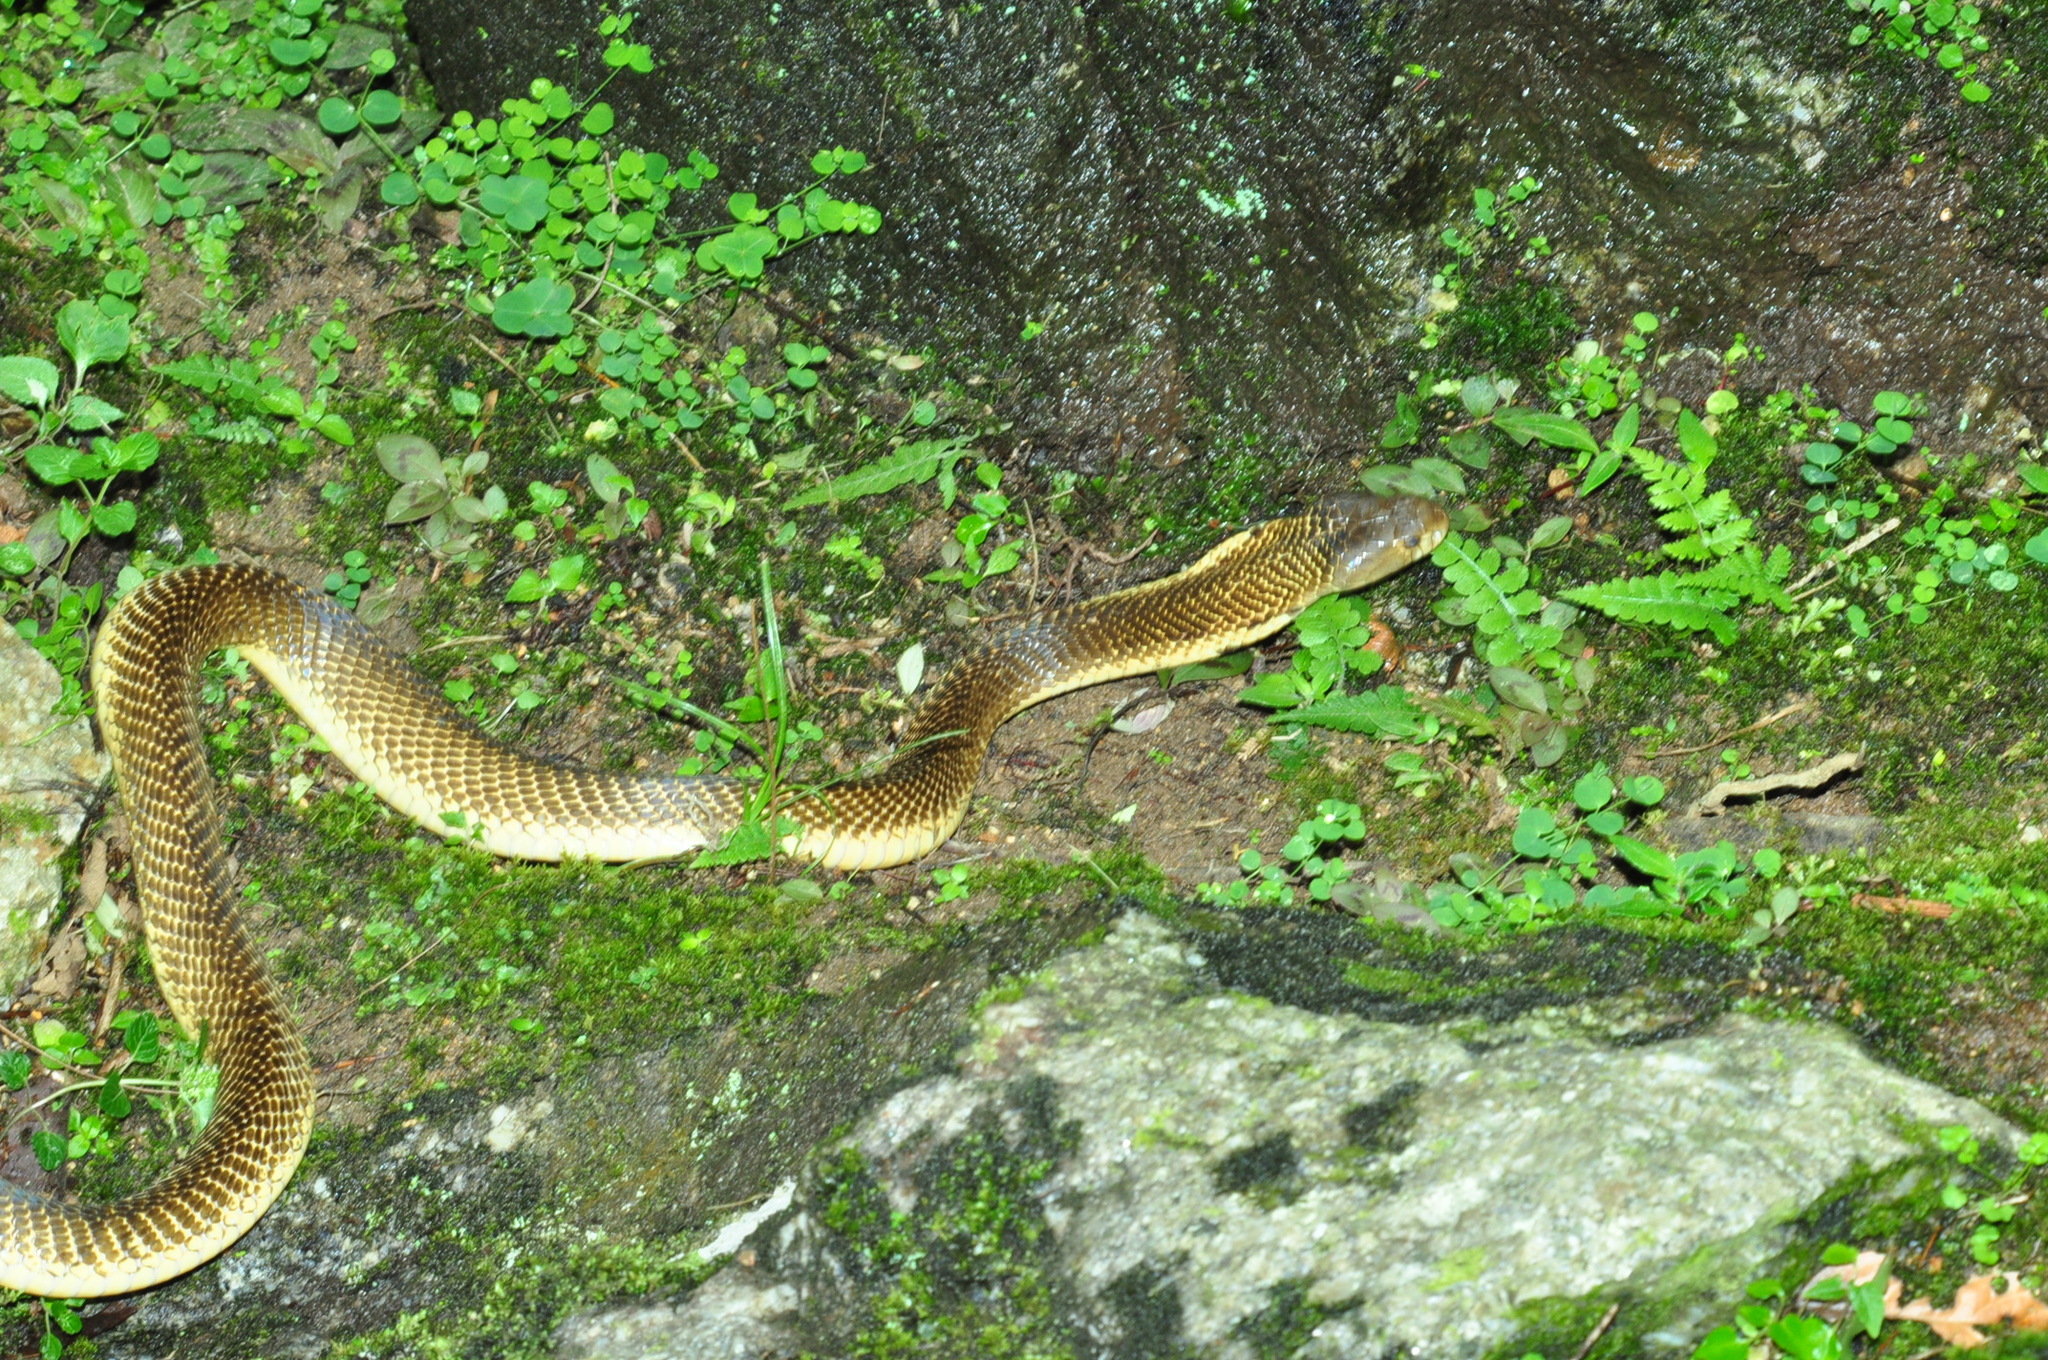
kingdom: Animalia
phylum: Chordata
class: Squamata
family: Elapidae
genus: Naja
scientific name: Naja sumatrana
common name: Equatorial spitting cobra
